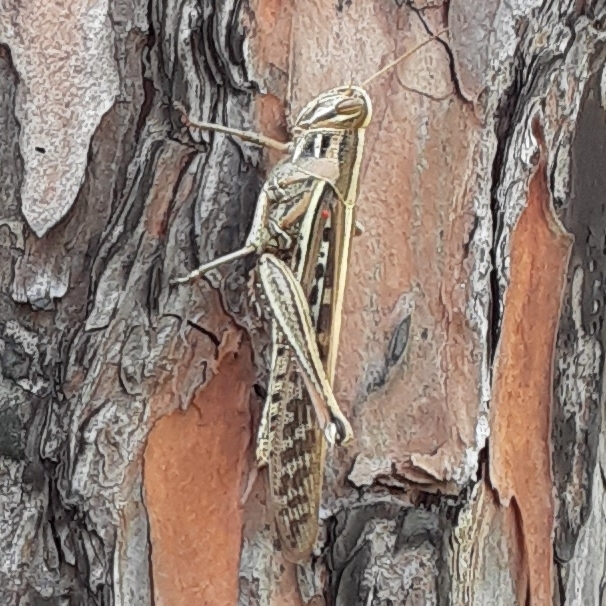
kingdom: Animalia
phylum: Arthropoda
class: Insecta
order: Orthoptera
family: Acrididae
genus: Schistocerca
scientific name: Schistocerca americana
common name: American bird locust
